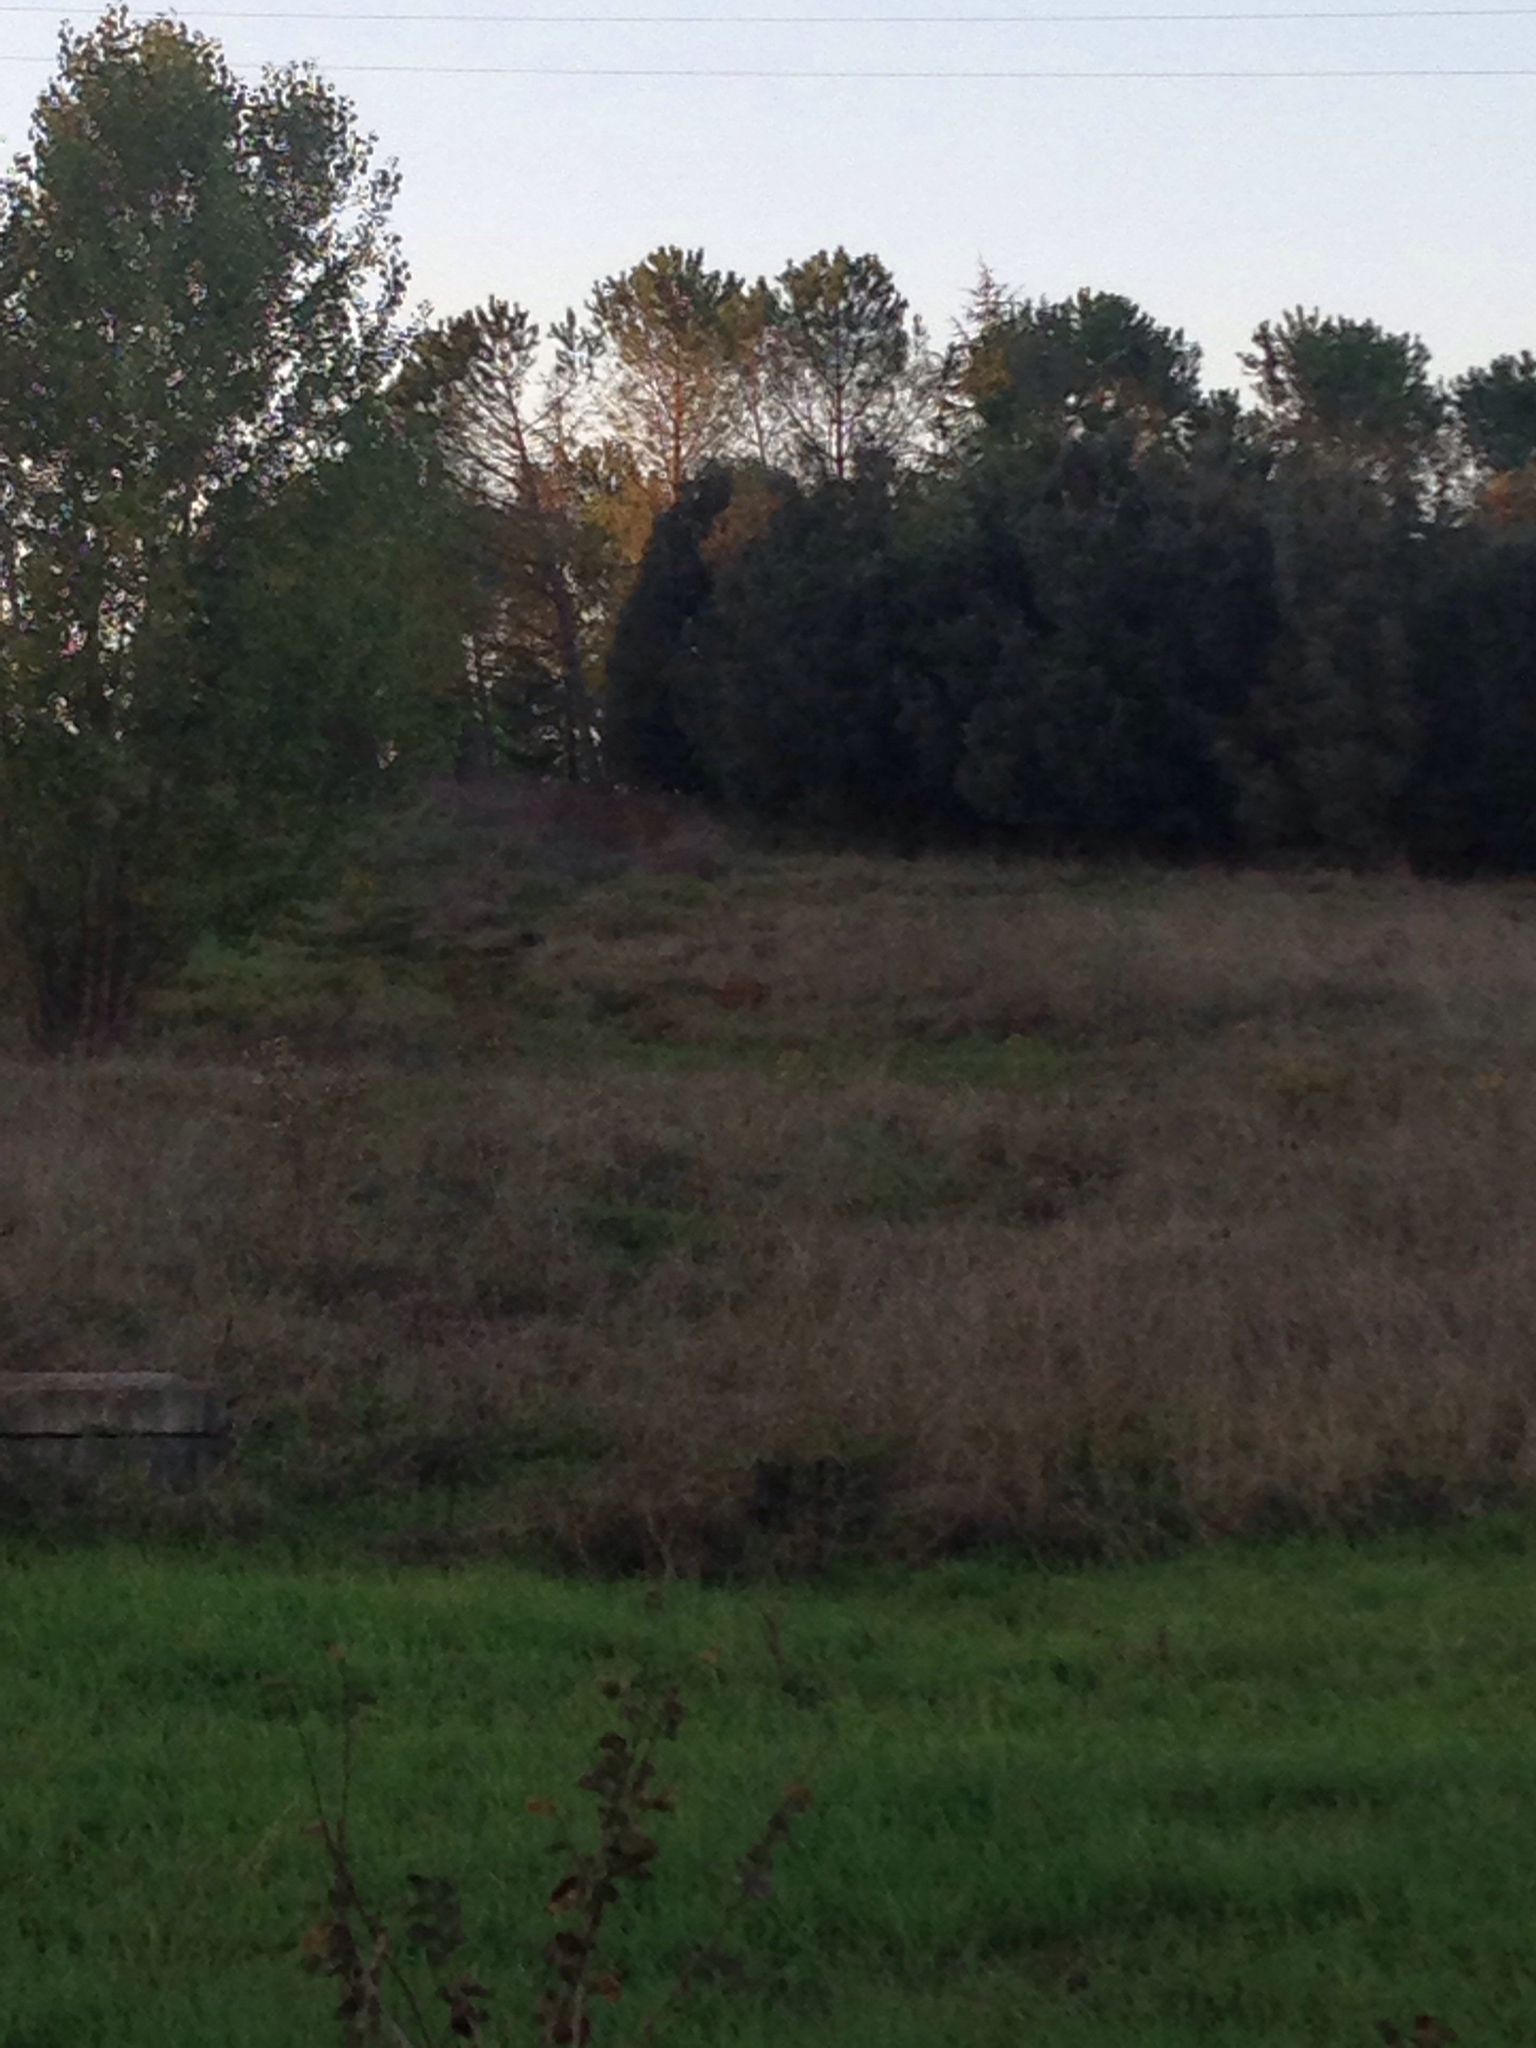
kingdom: Animalia
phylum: Chordata
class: Mammalia
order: Artiodactyla
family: Cervidae
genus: Capreolus
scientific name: Capreolus capreolus
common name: Western roe deer
